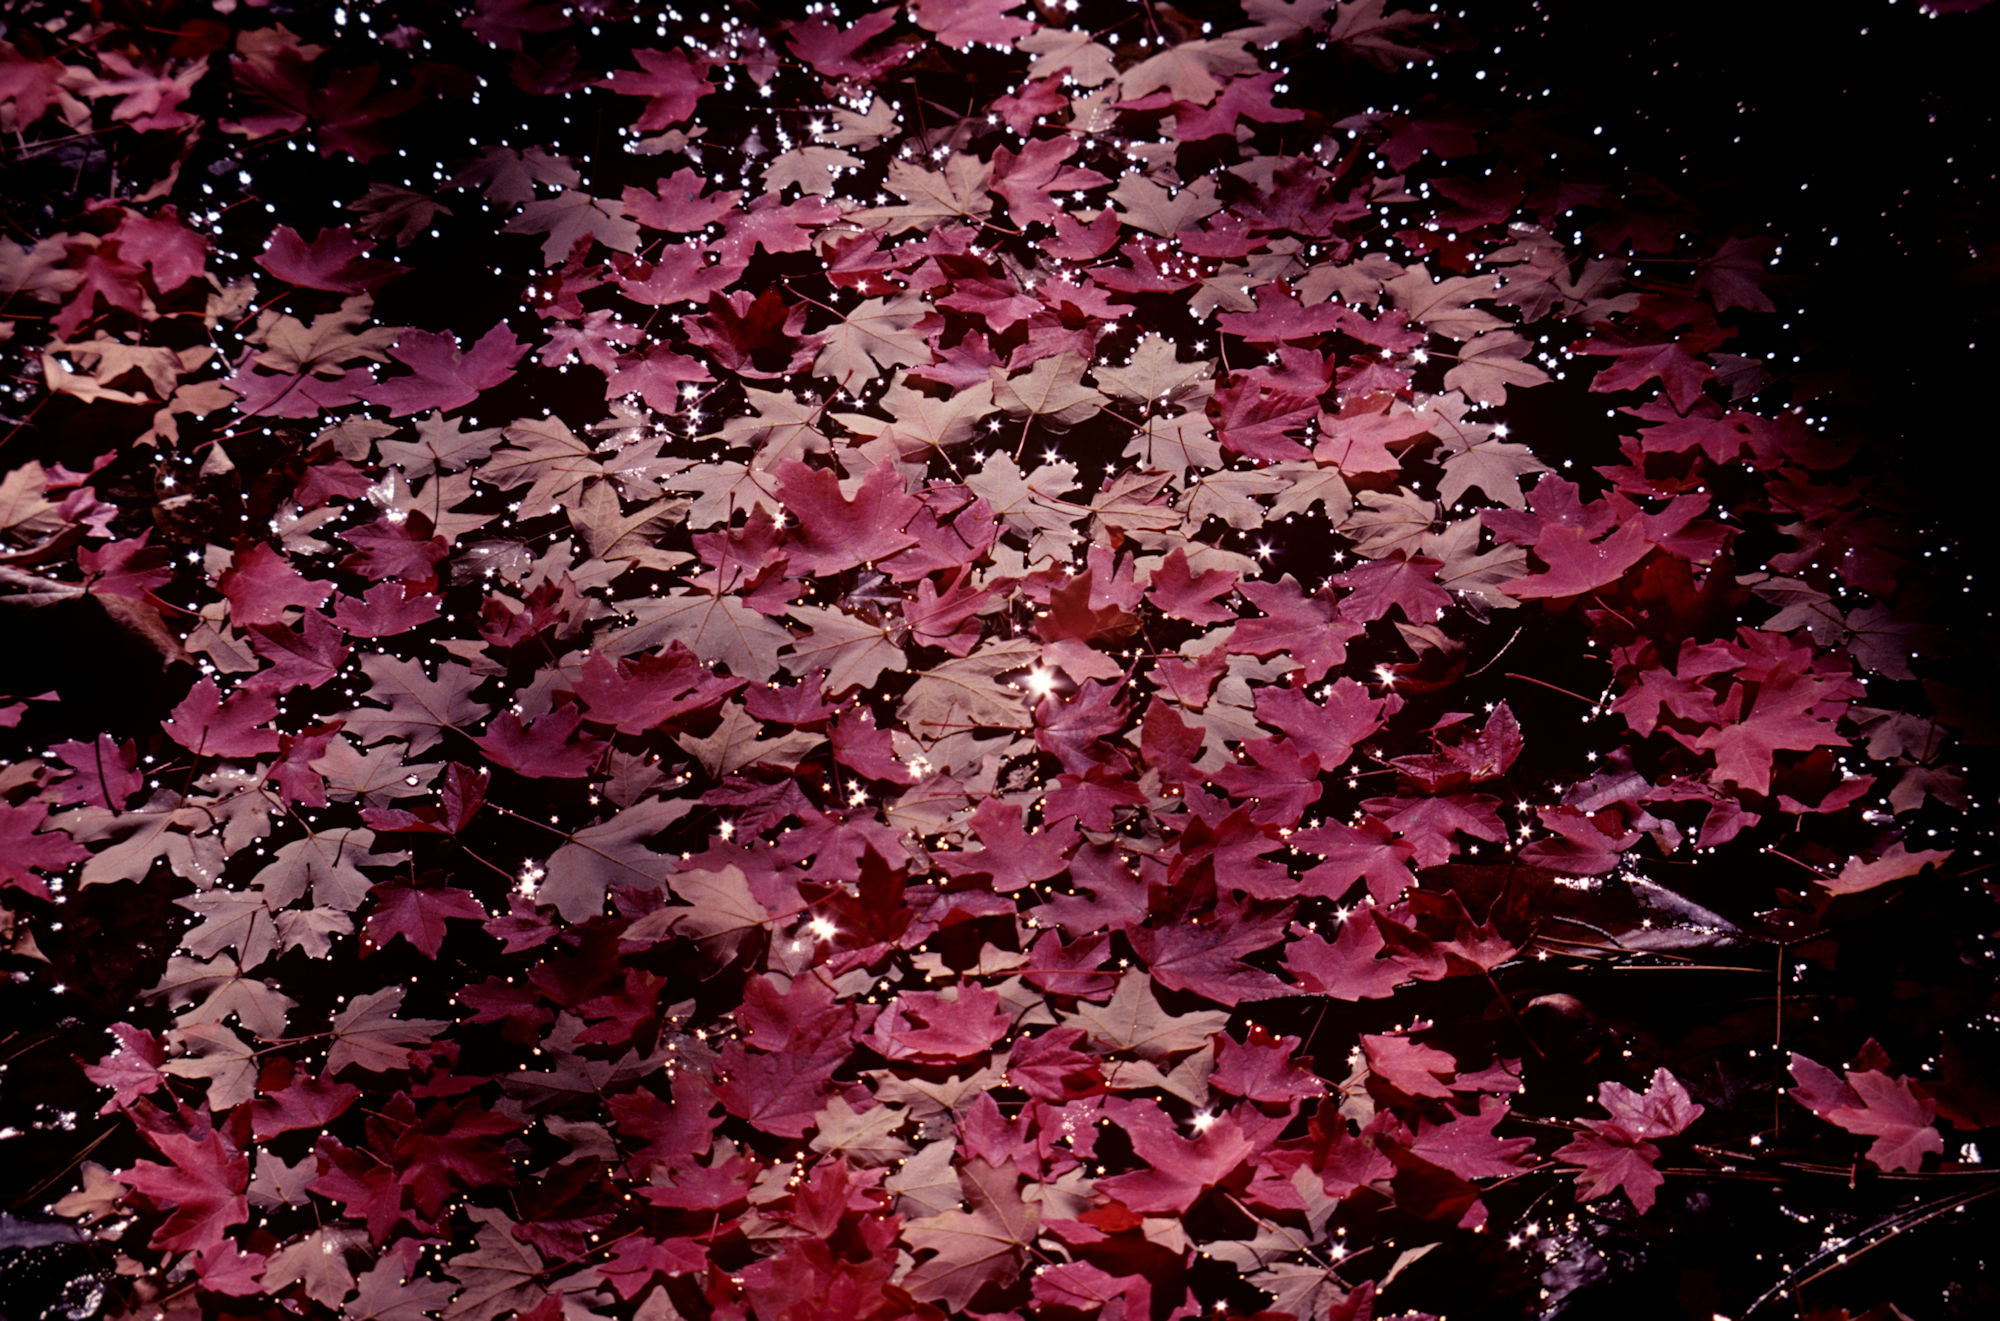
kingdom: Plantae
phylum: Tracheophyta
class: Magnoliopsida
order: Sapindales
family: Sapindaceae
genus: Acer
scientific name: Acer grandidentatum
